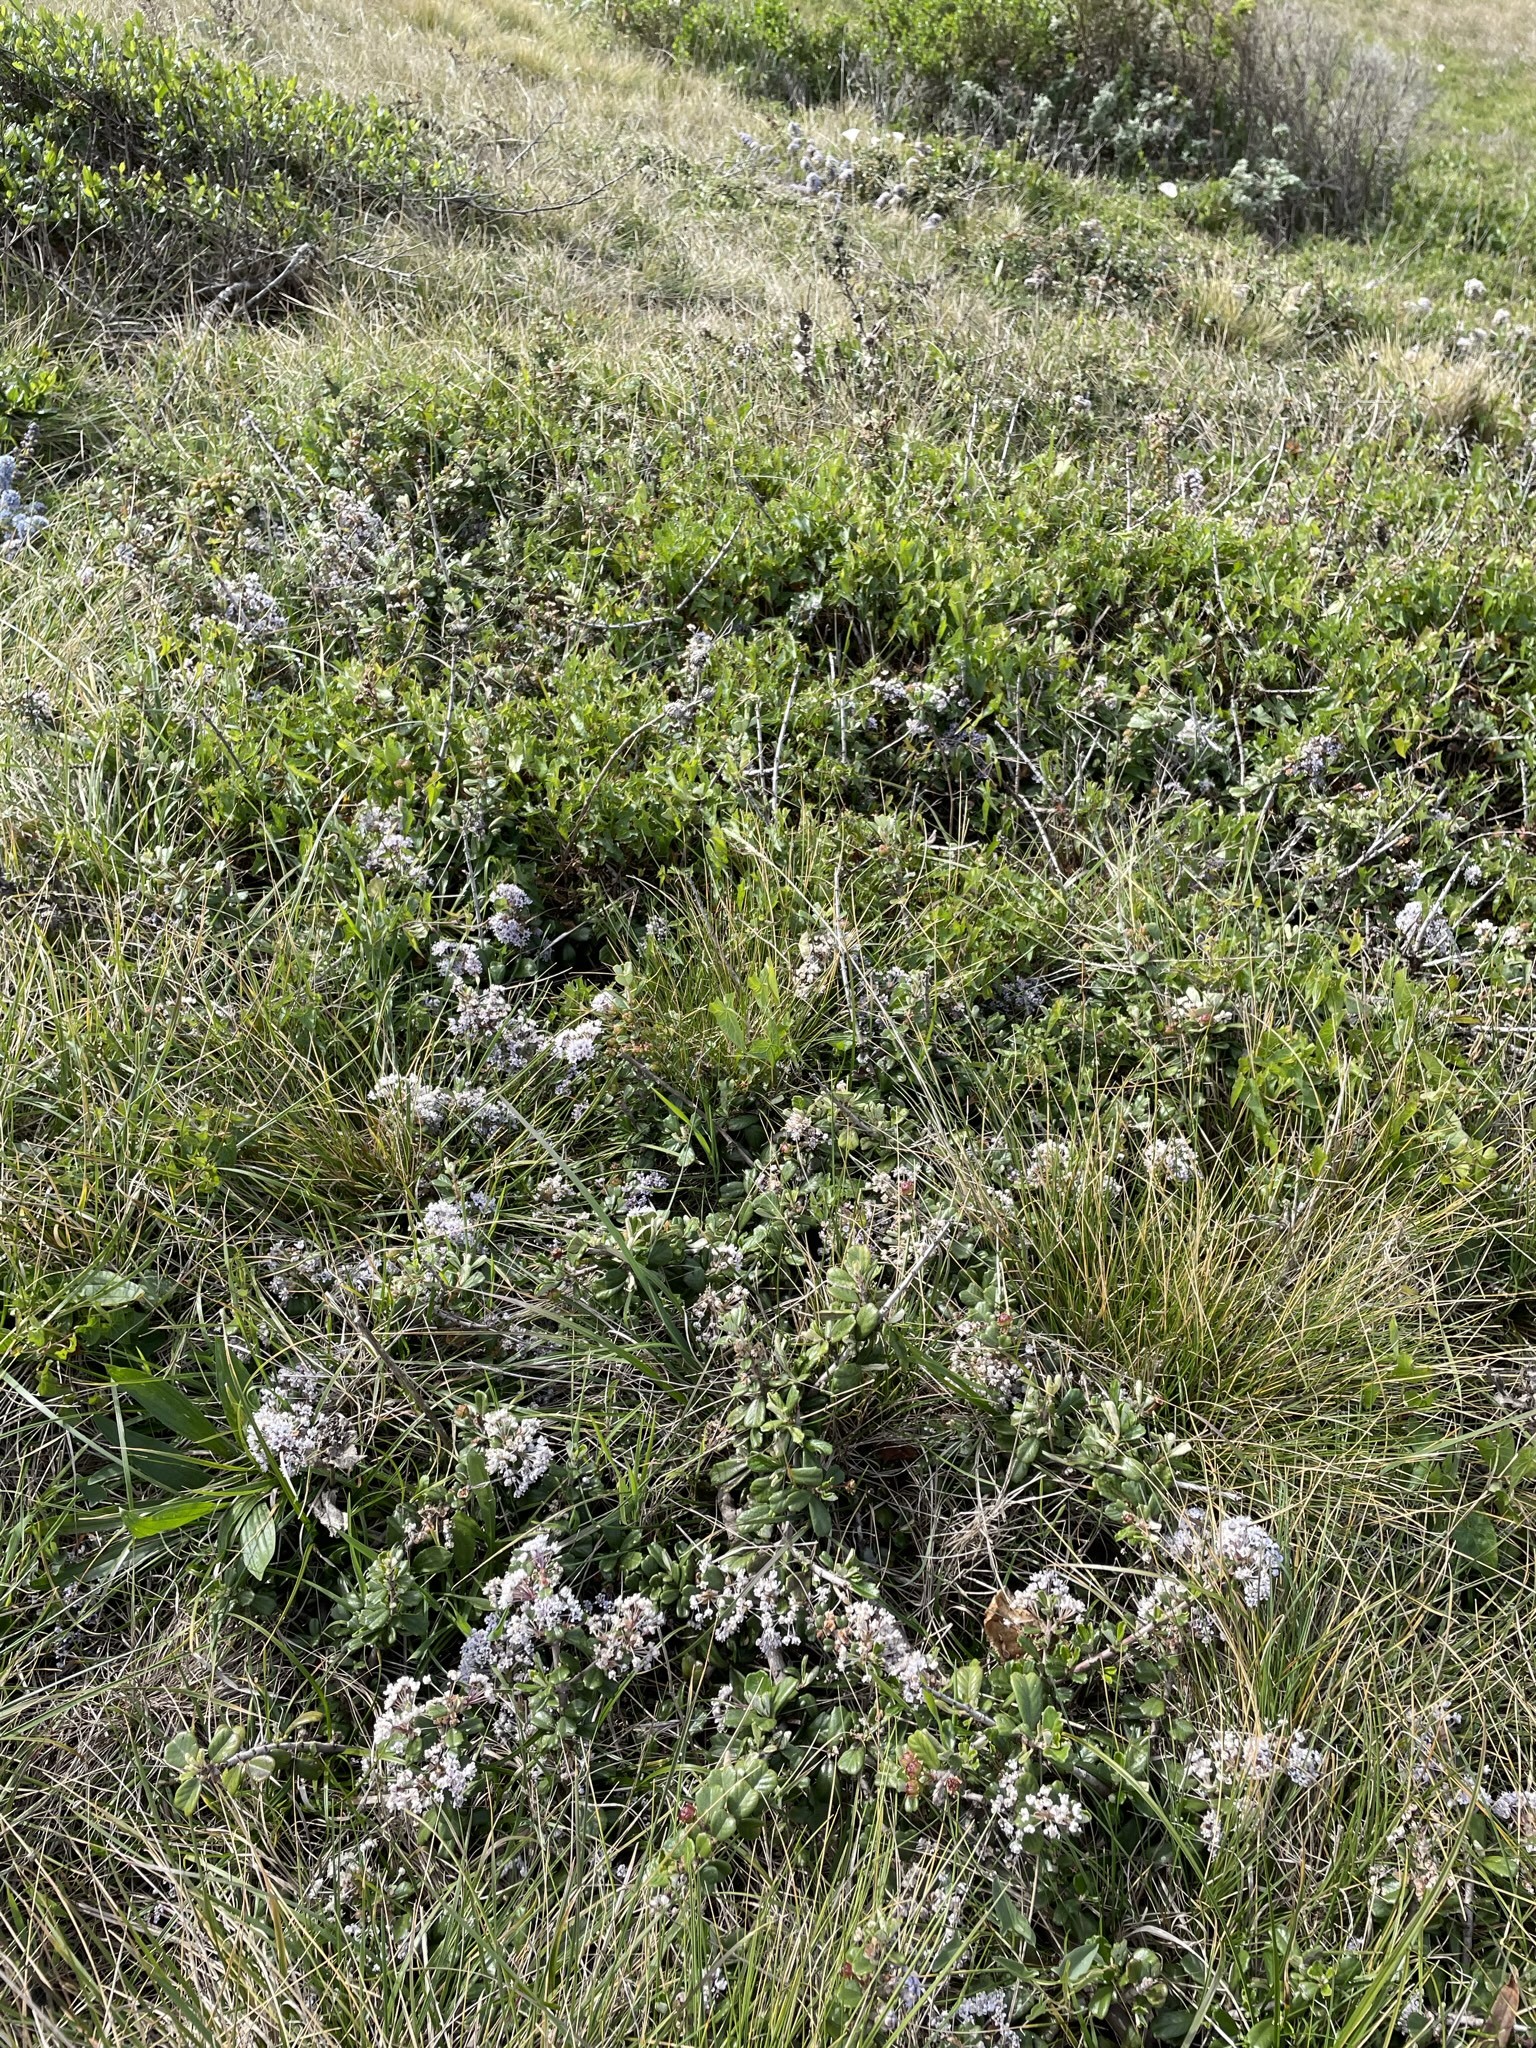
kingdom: Plantae
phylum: Tracheophyta
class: Magnoliopsida
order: Rosales
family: Rhamnaceae
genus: Ceanothus
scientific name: Ceanothus maritimus
